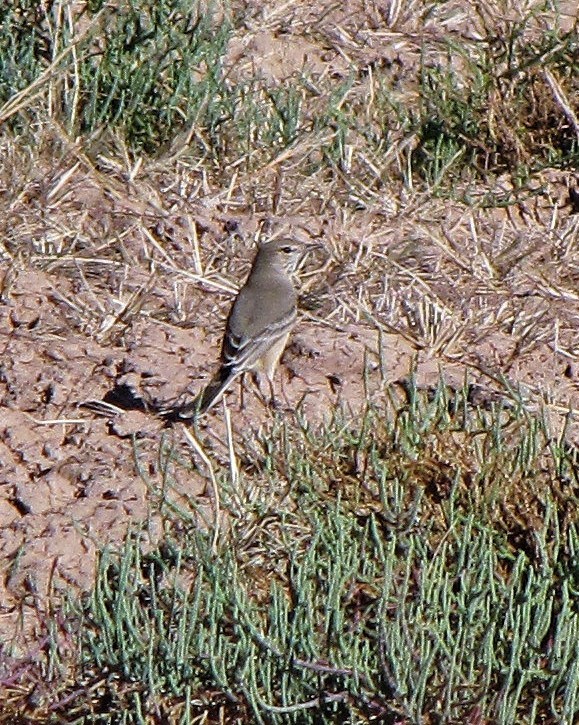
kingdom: Animalia
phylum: Chordata
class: Aves
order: Passeriformes
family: Tyrannidae
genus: Agriornis
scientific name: Agriornis murinus
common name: Lesser shrike-tyrant
